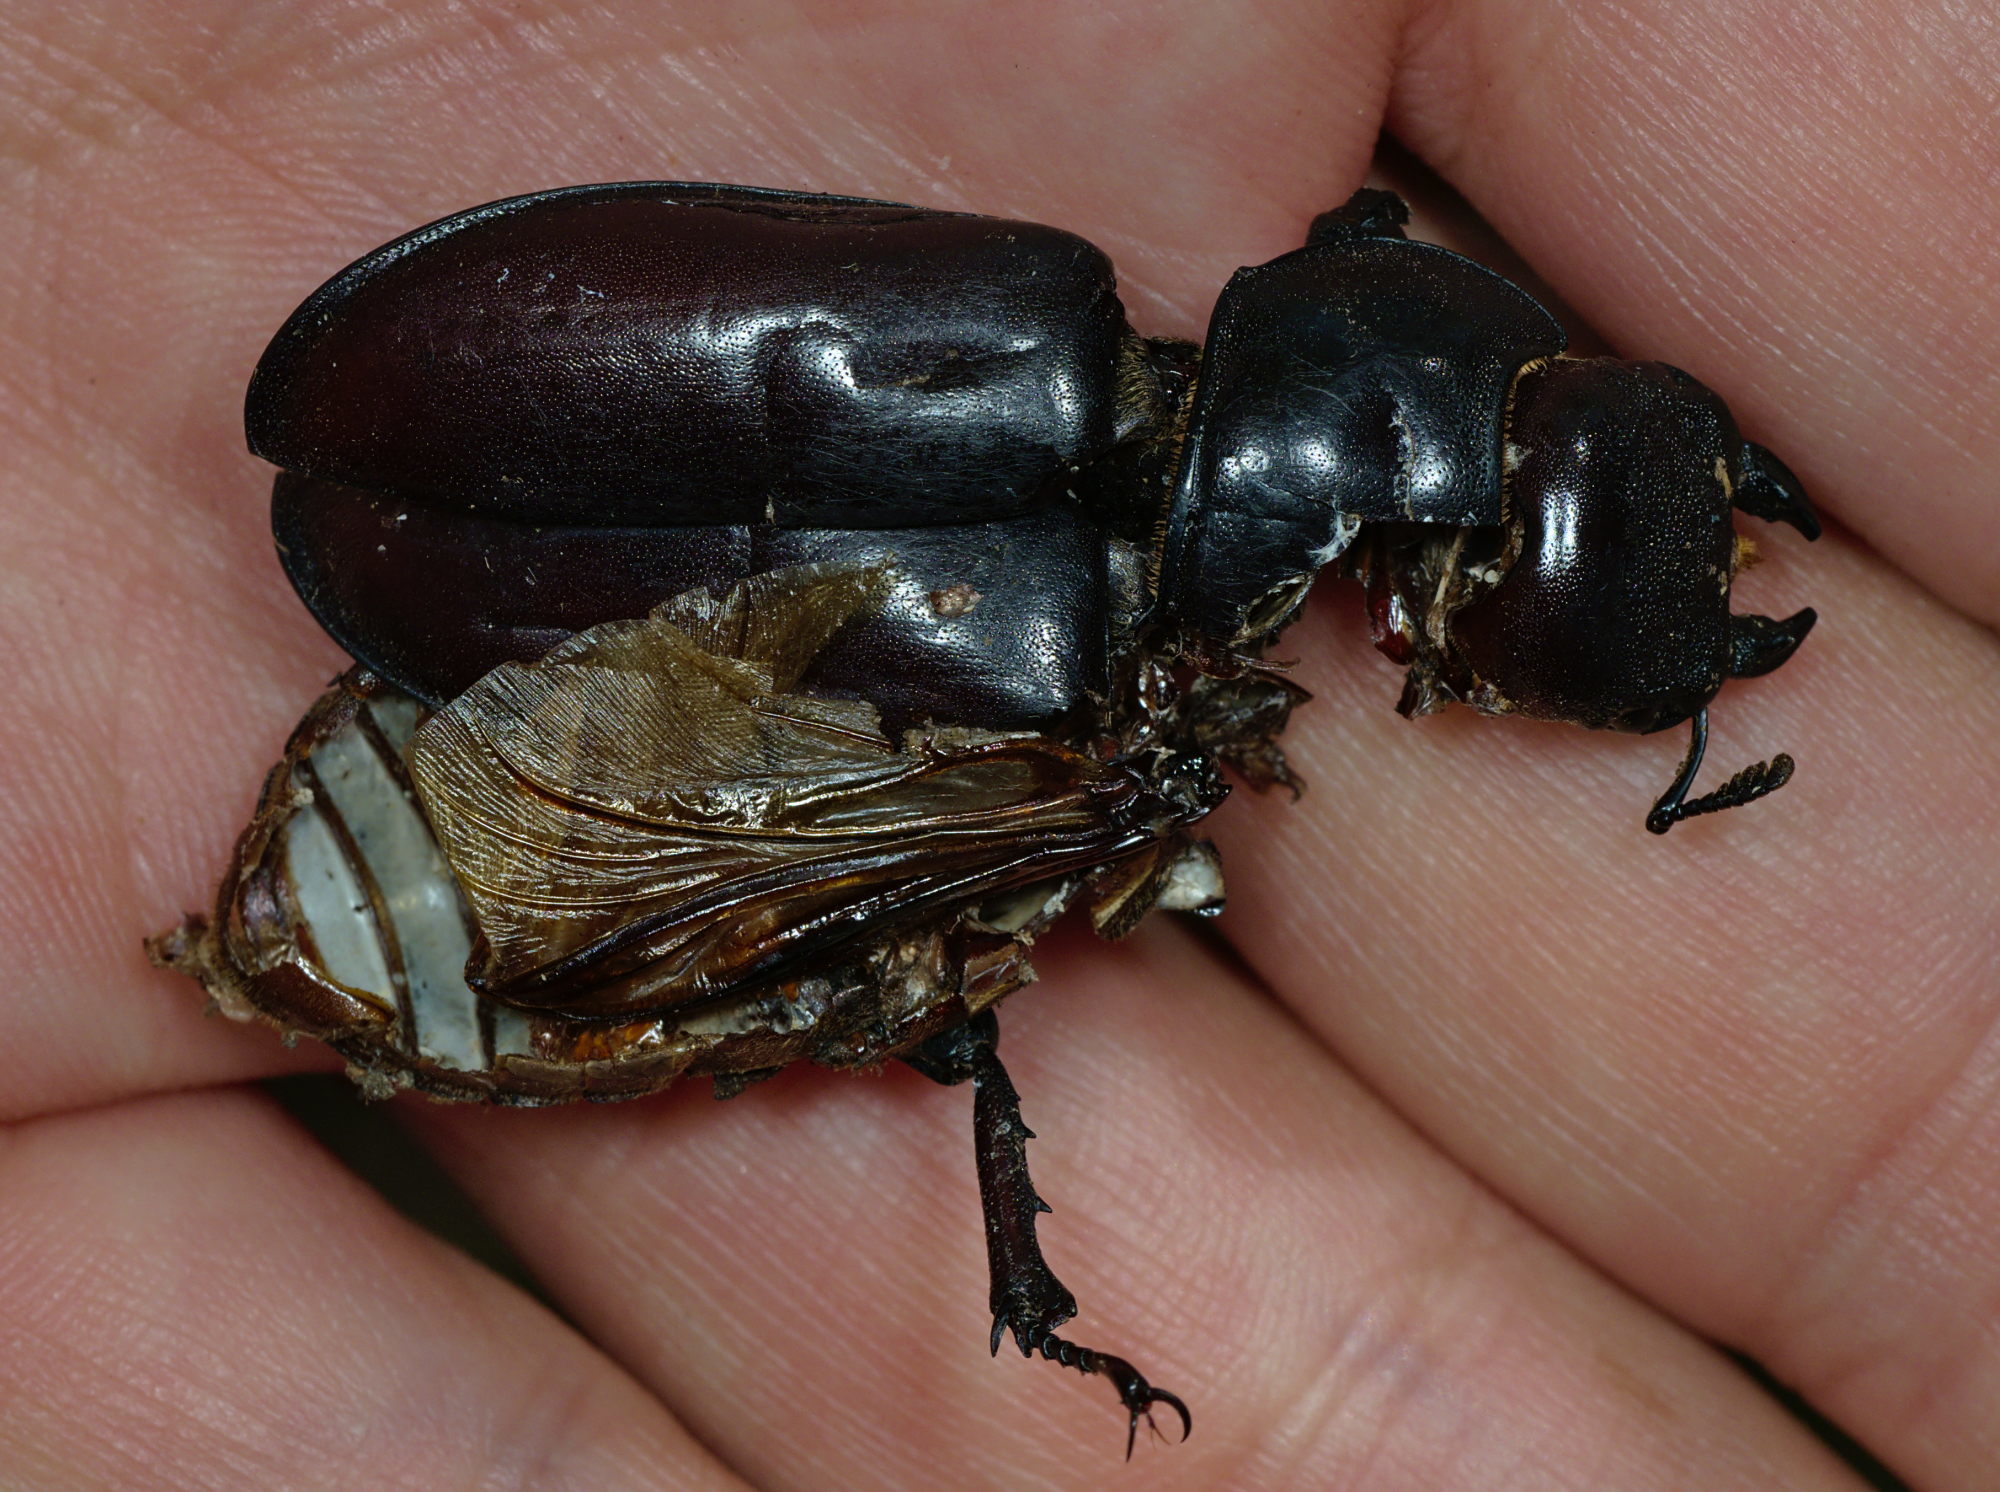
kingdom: Animalia
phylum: Arthropoda
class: Insecta
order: Coleoptera
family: Lucanidae
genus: Lucanus
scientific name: Lucanus cervus
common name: Stag beetle
